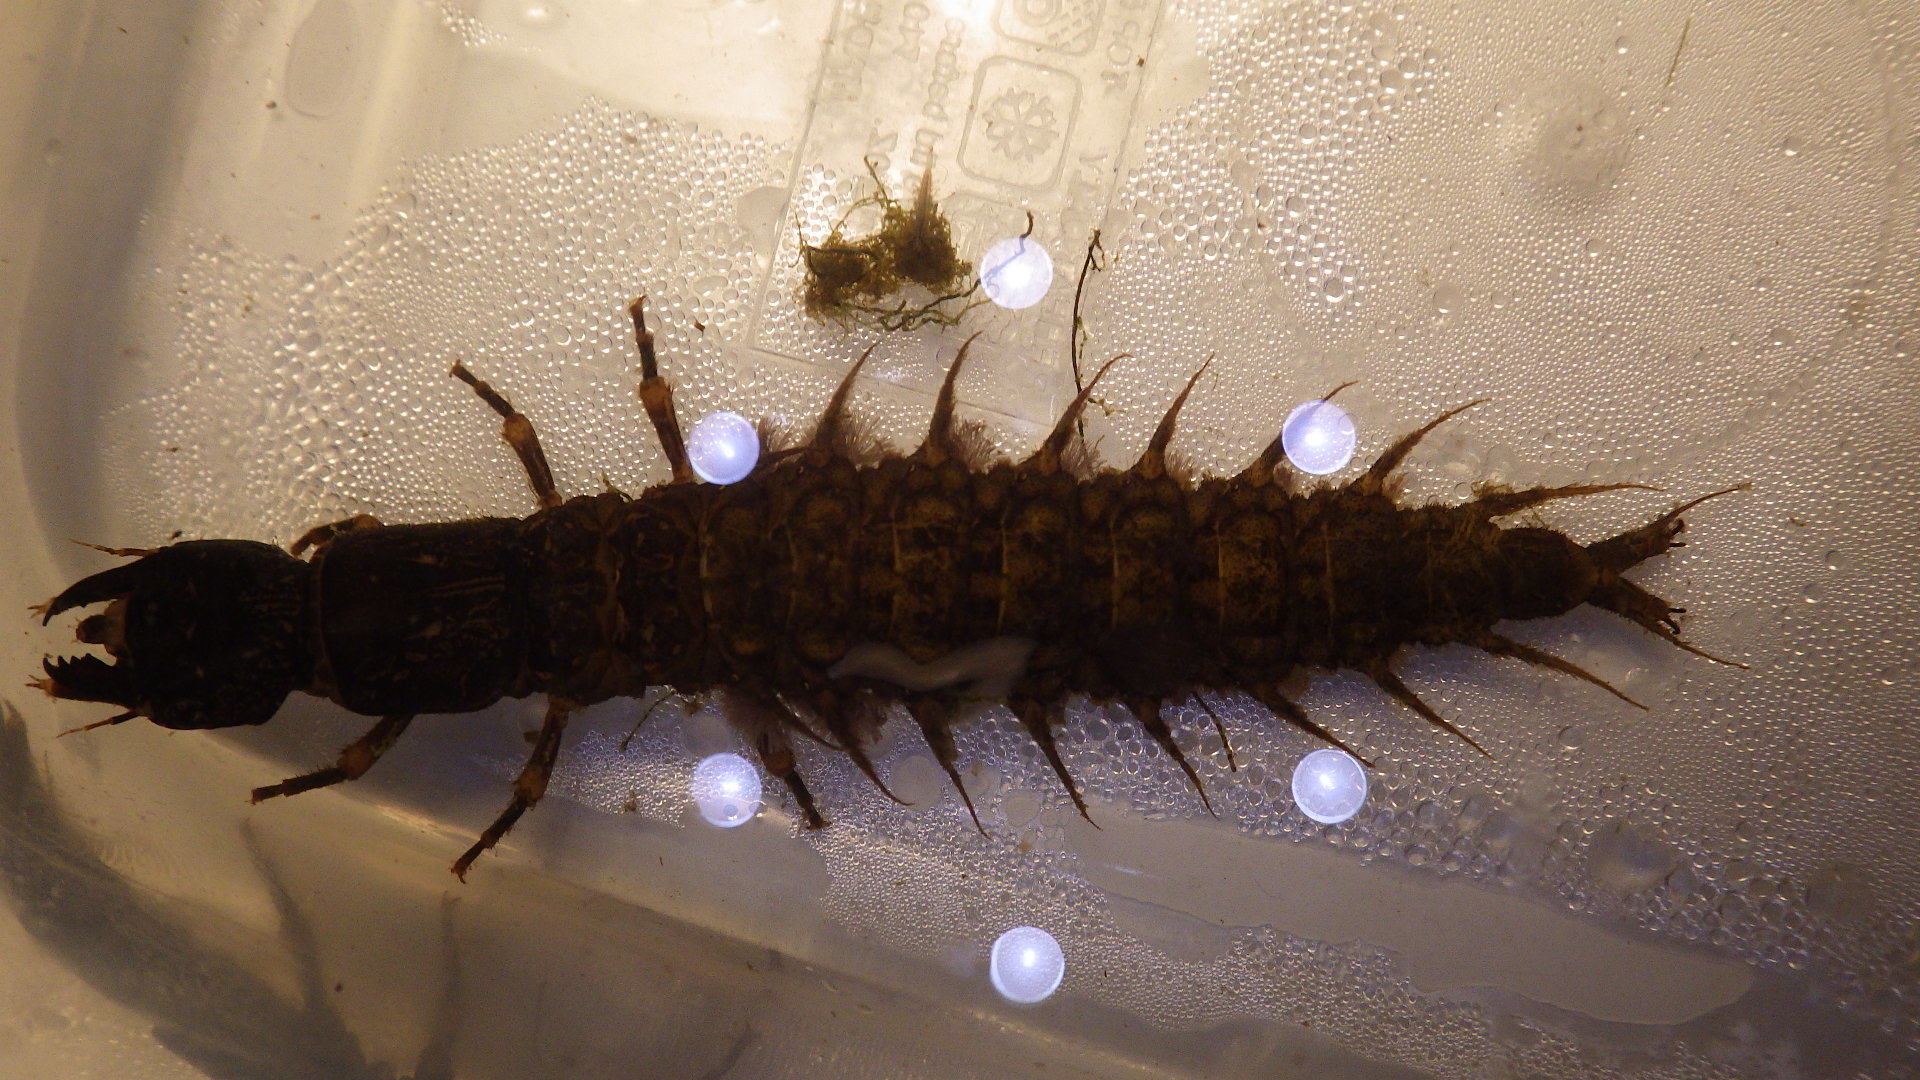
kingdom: Animalia
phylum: Arthropoda
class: Insecta
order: Megaloptera
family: Corydalidae
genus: Corydalus
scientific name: Corydalus cornutus
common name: Dobsonfly
